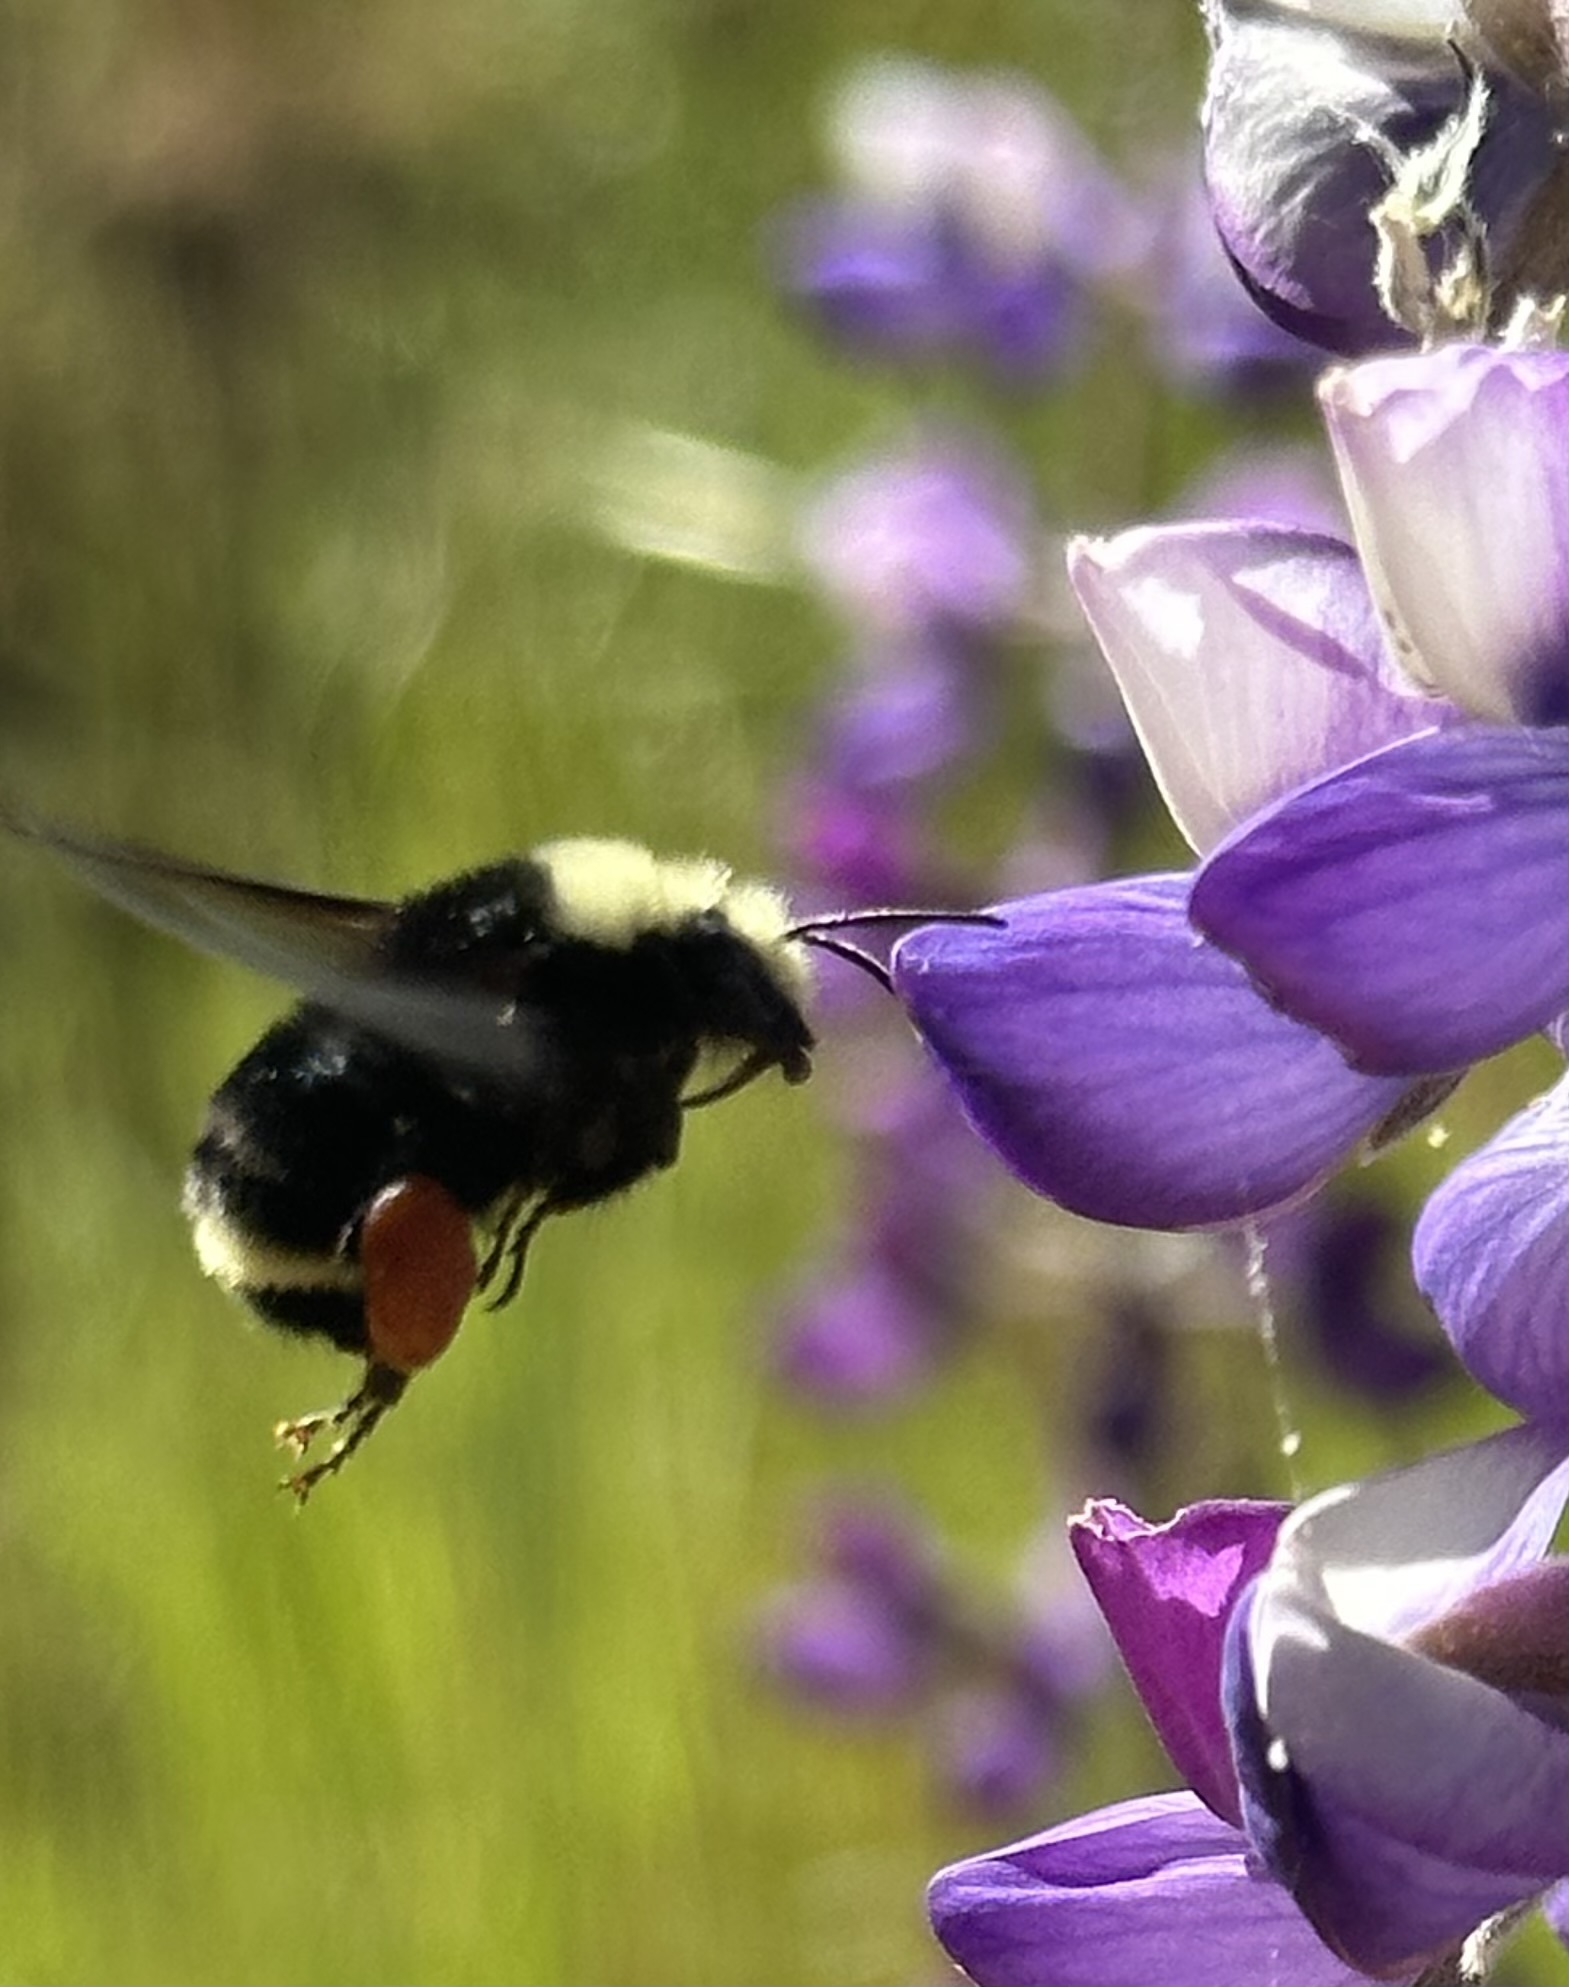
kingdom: Animalia
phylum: Arthropoda
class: Insecta
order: Hymenoptera
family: Apidae
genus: Bombus
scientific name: Bombus vosnesenskii
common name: Vosnesensky bumble bee
